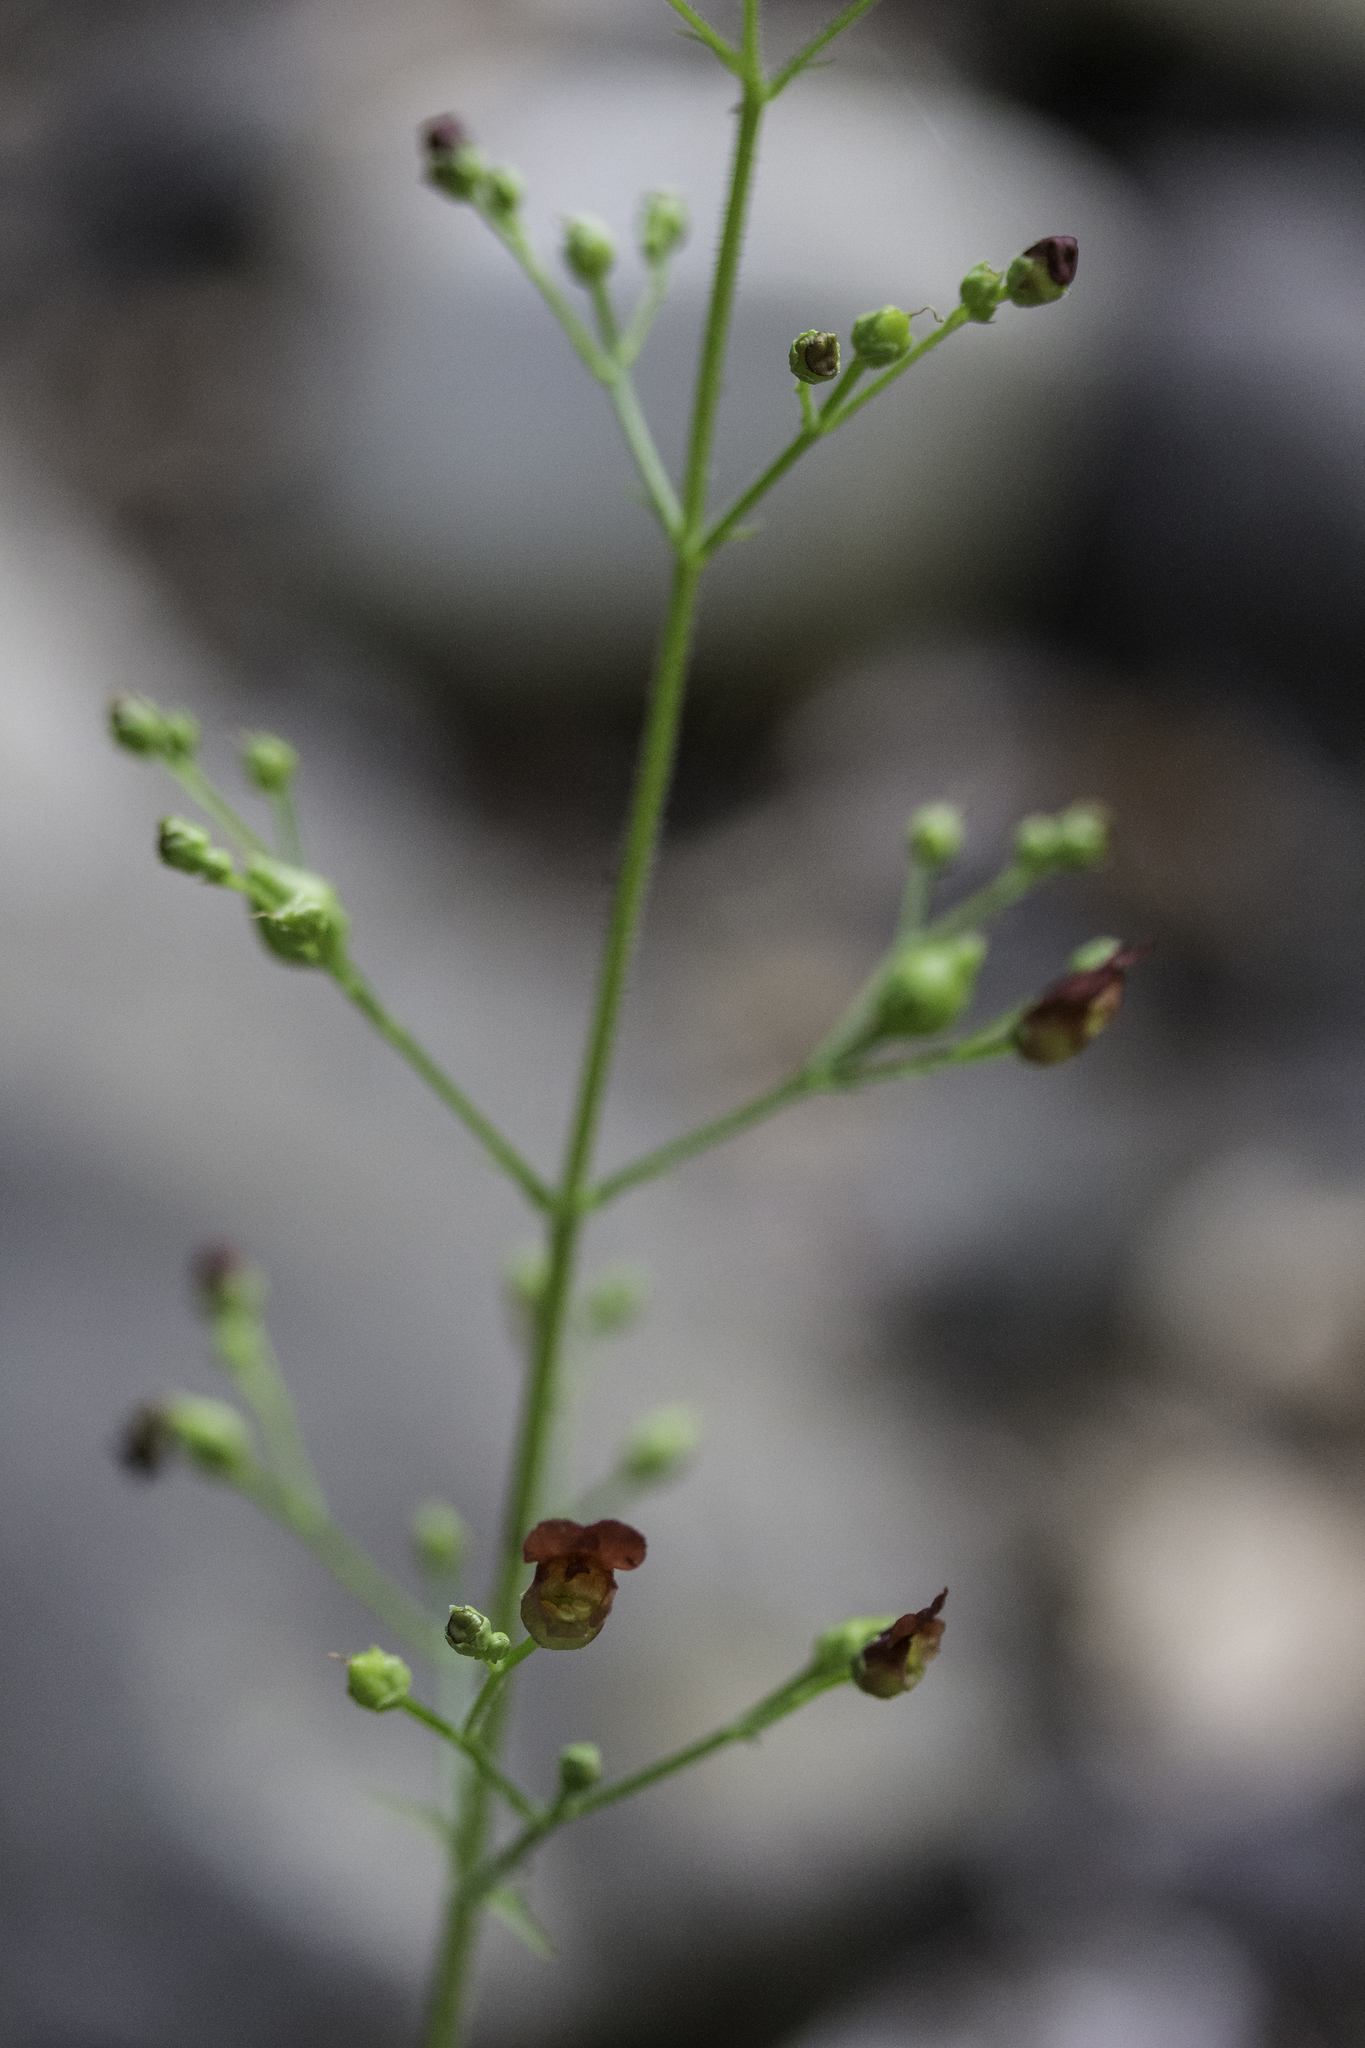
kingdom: Plantae
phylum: Tracheophyta
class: Magnoliopsida
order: Lamiales
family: Scrophulariaceae
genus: Scrophularia
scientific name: Scrophularia californica
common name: California figwort
